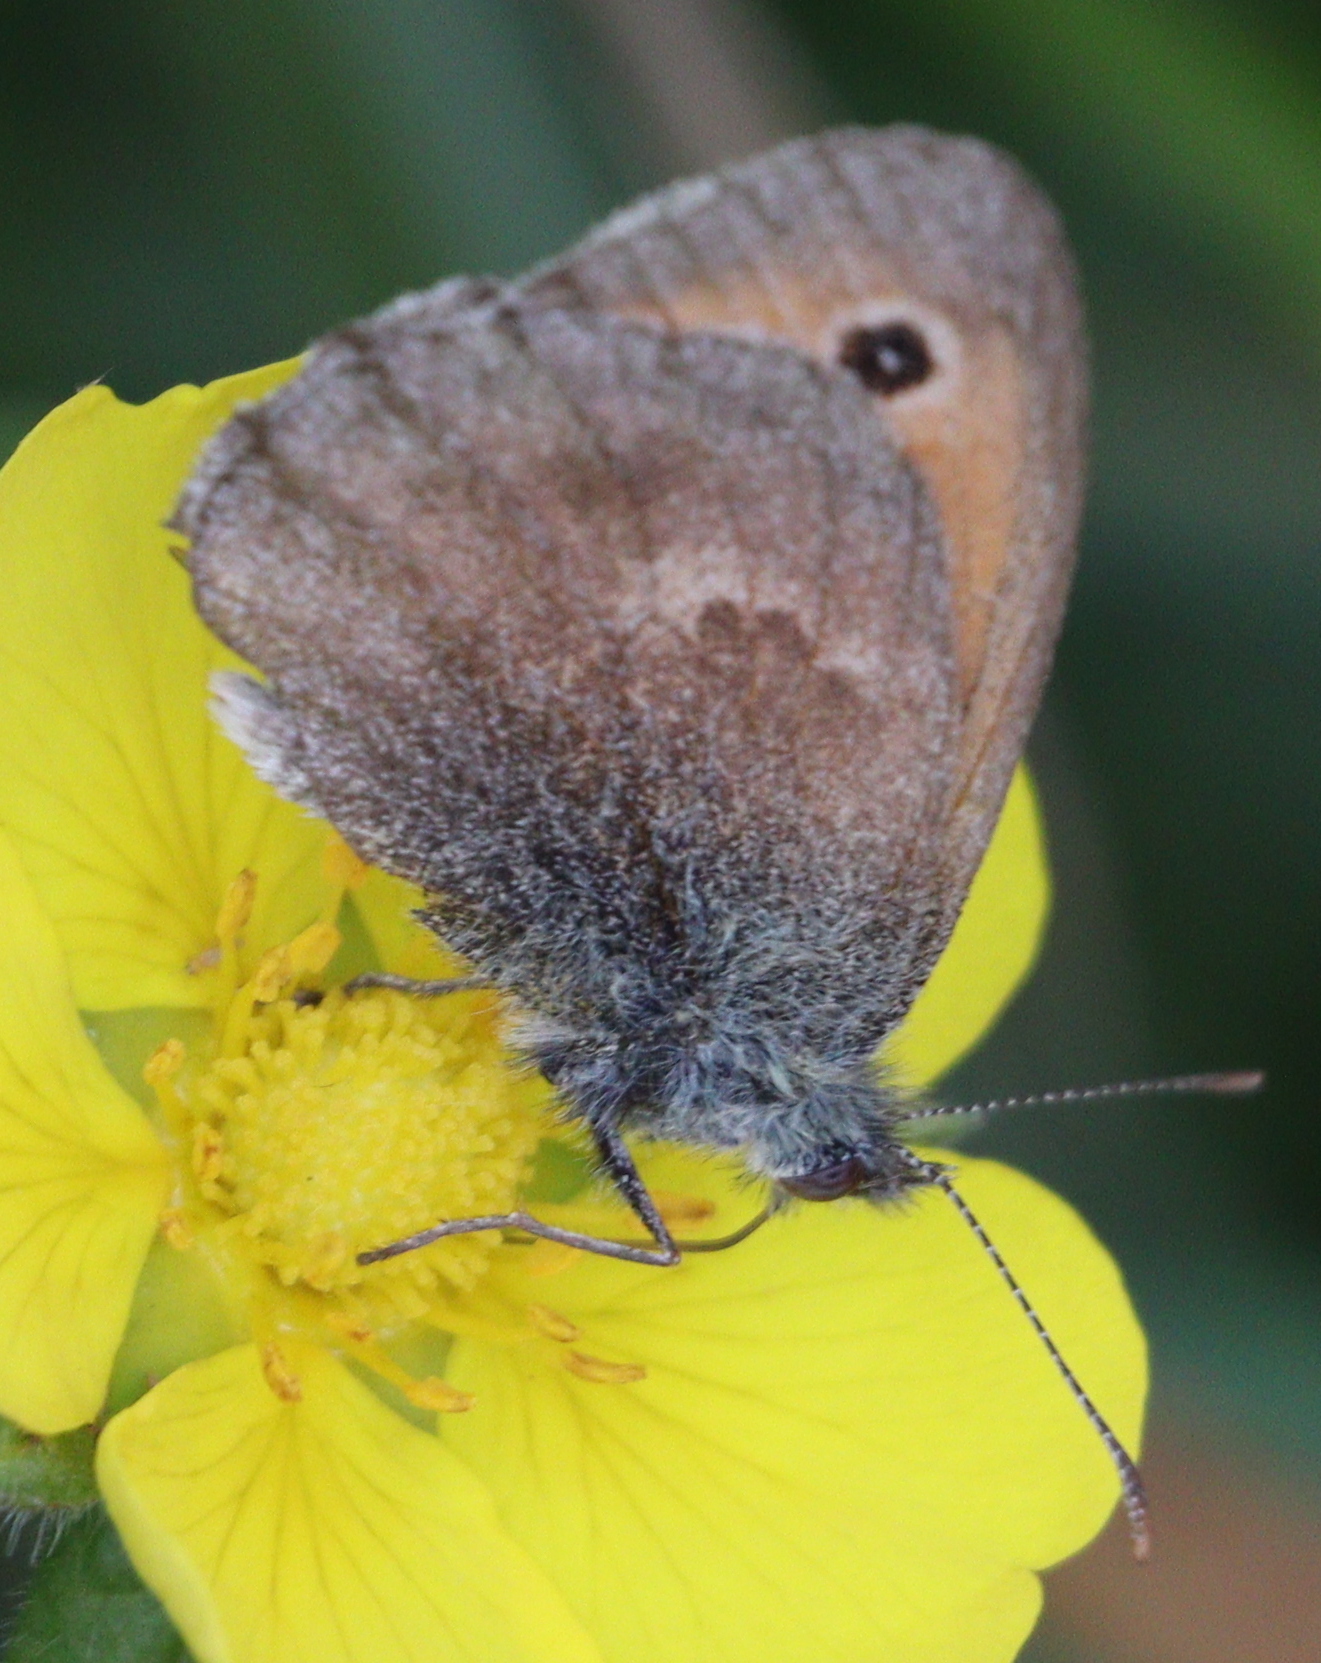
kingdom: Animalia
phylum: Arthropoda
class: Insecta
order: Lepidoptera
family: Nymphalidae
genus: Coenonympha
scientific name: Coenonympha pamphilus
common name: Small heath
